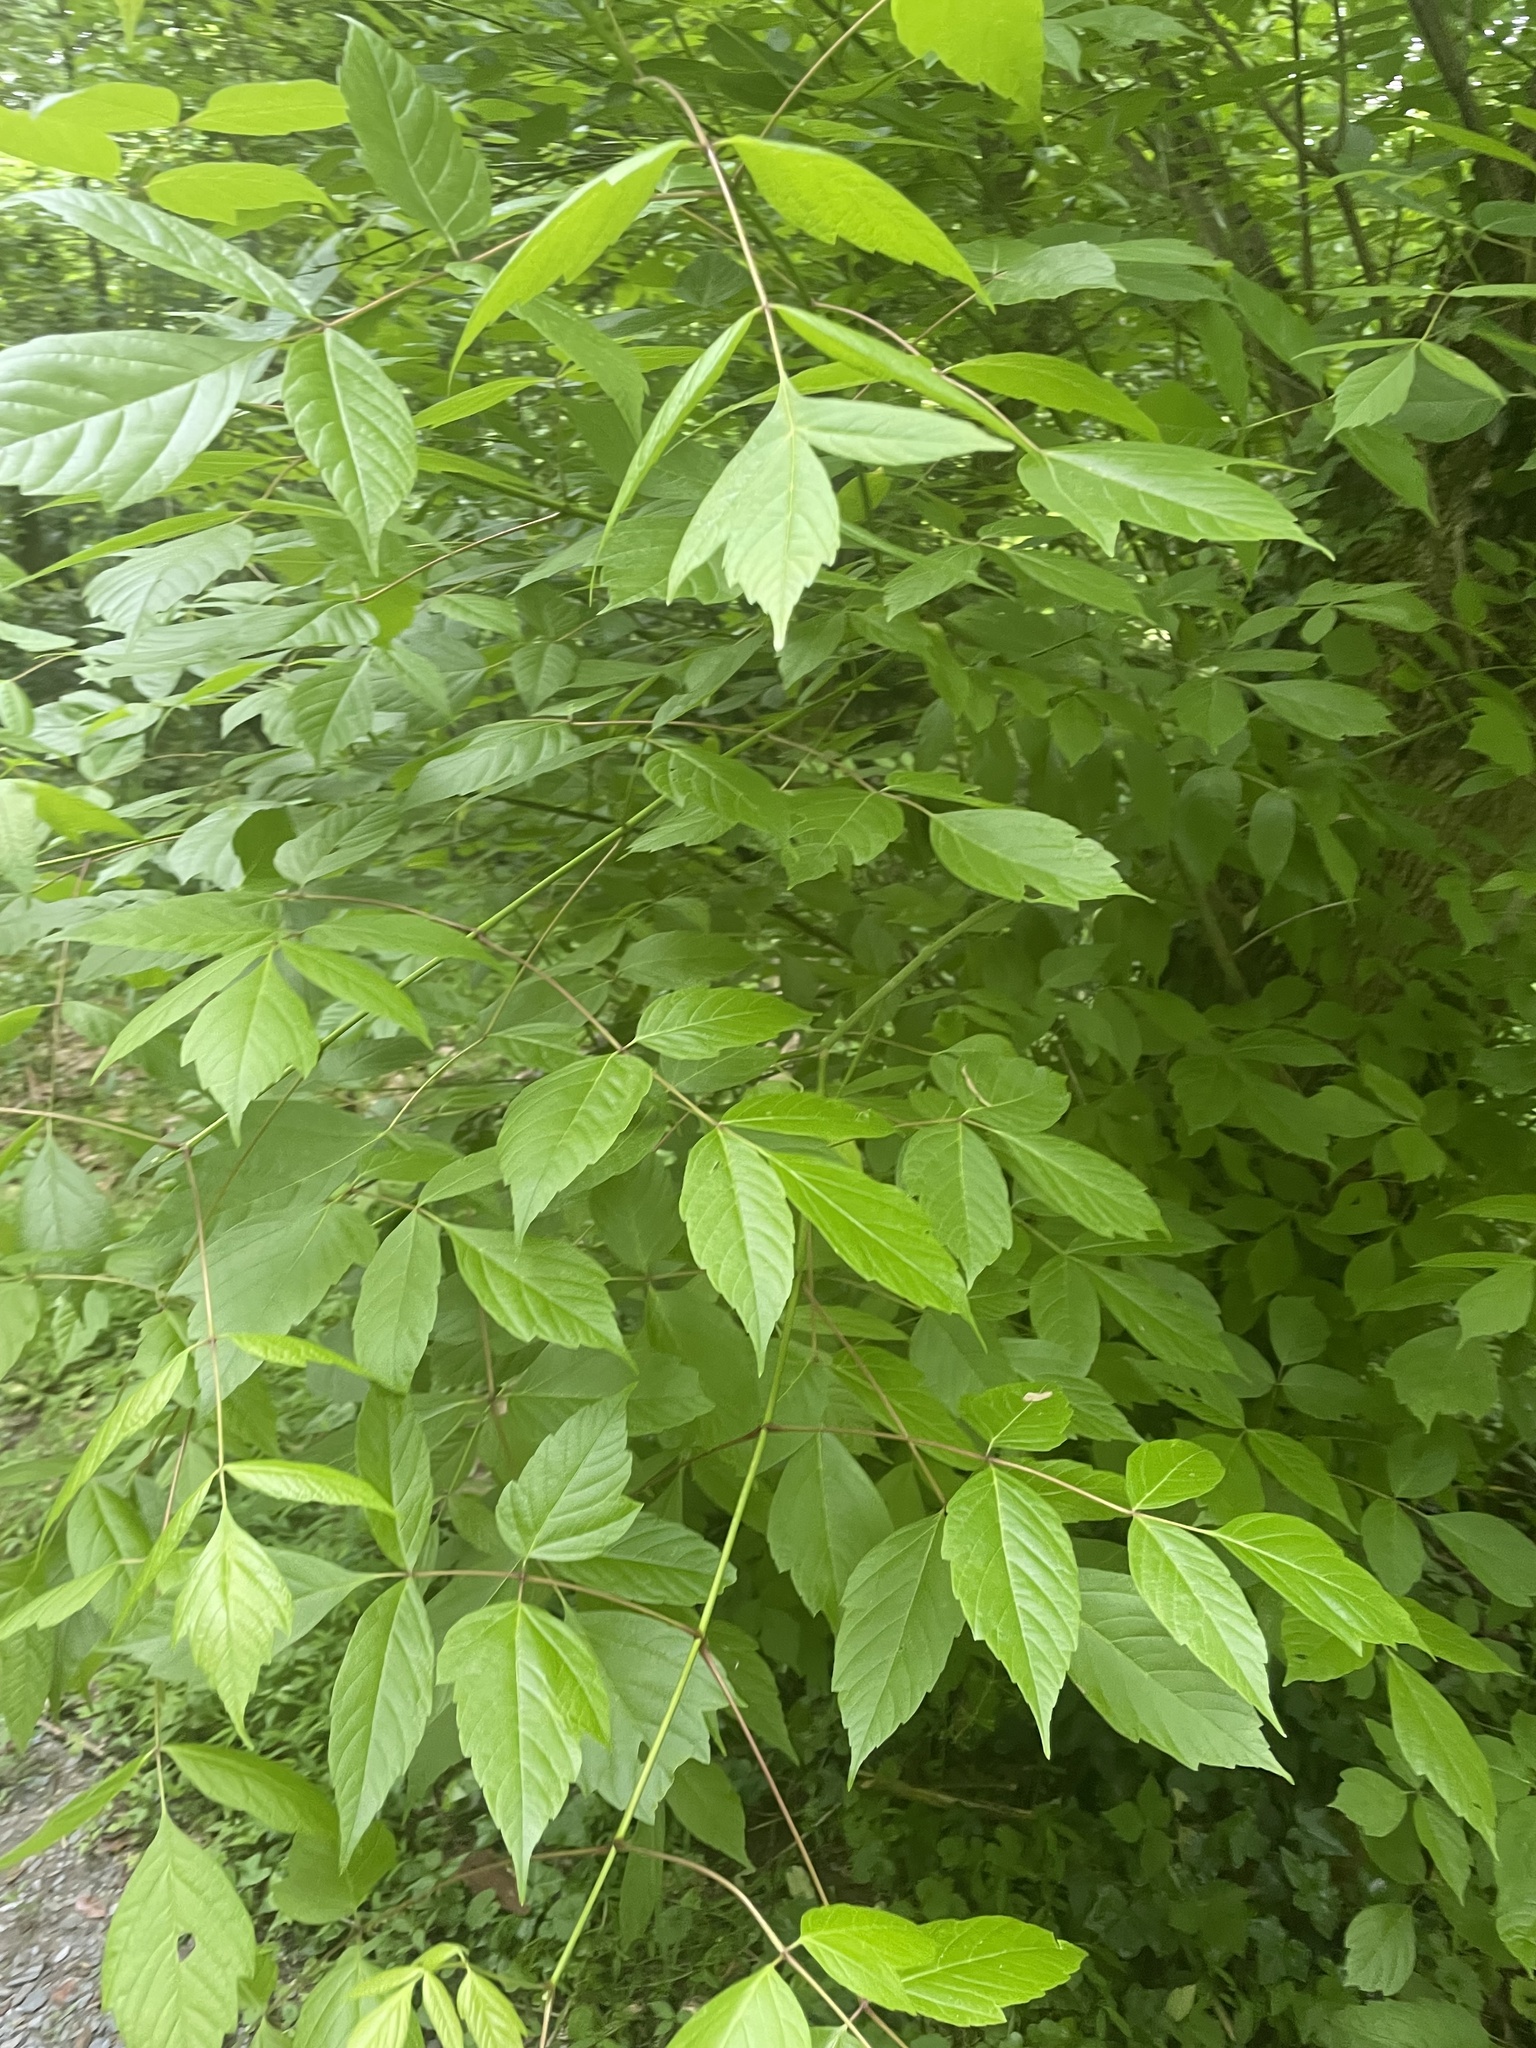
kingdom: Plantae
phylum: Tracheophyta
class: Magnoliopsida
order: Sapindales
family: Sapindaceae
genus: Acer
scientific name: Acer negundo
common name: Ashleaf maple
